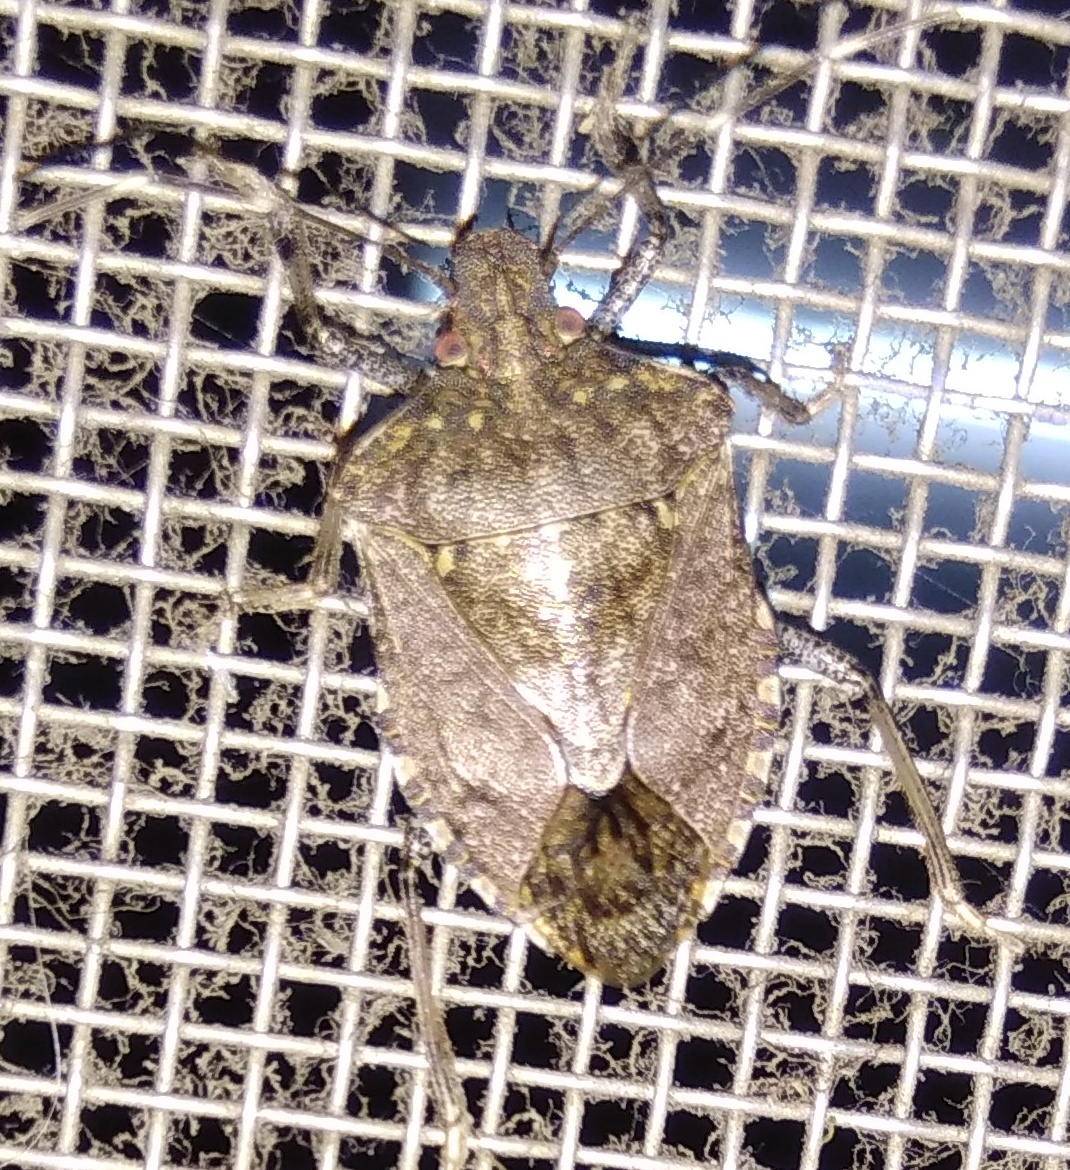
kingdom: Animalia
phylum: Arthropoda
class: Insecta
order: Hemiptera
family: Pentatomidae
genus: Halyomorpha
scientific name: Halyomorpha picus
